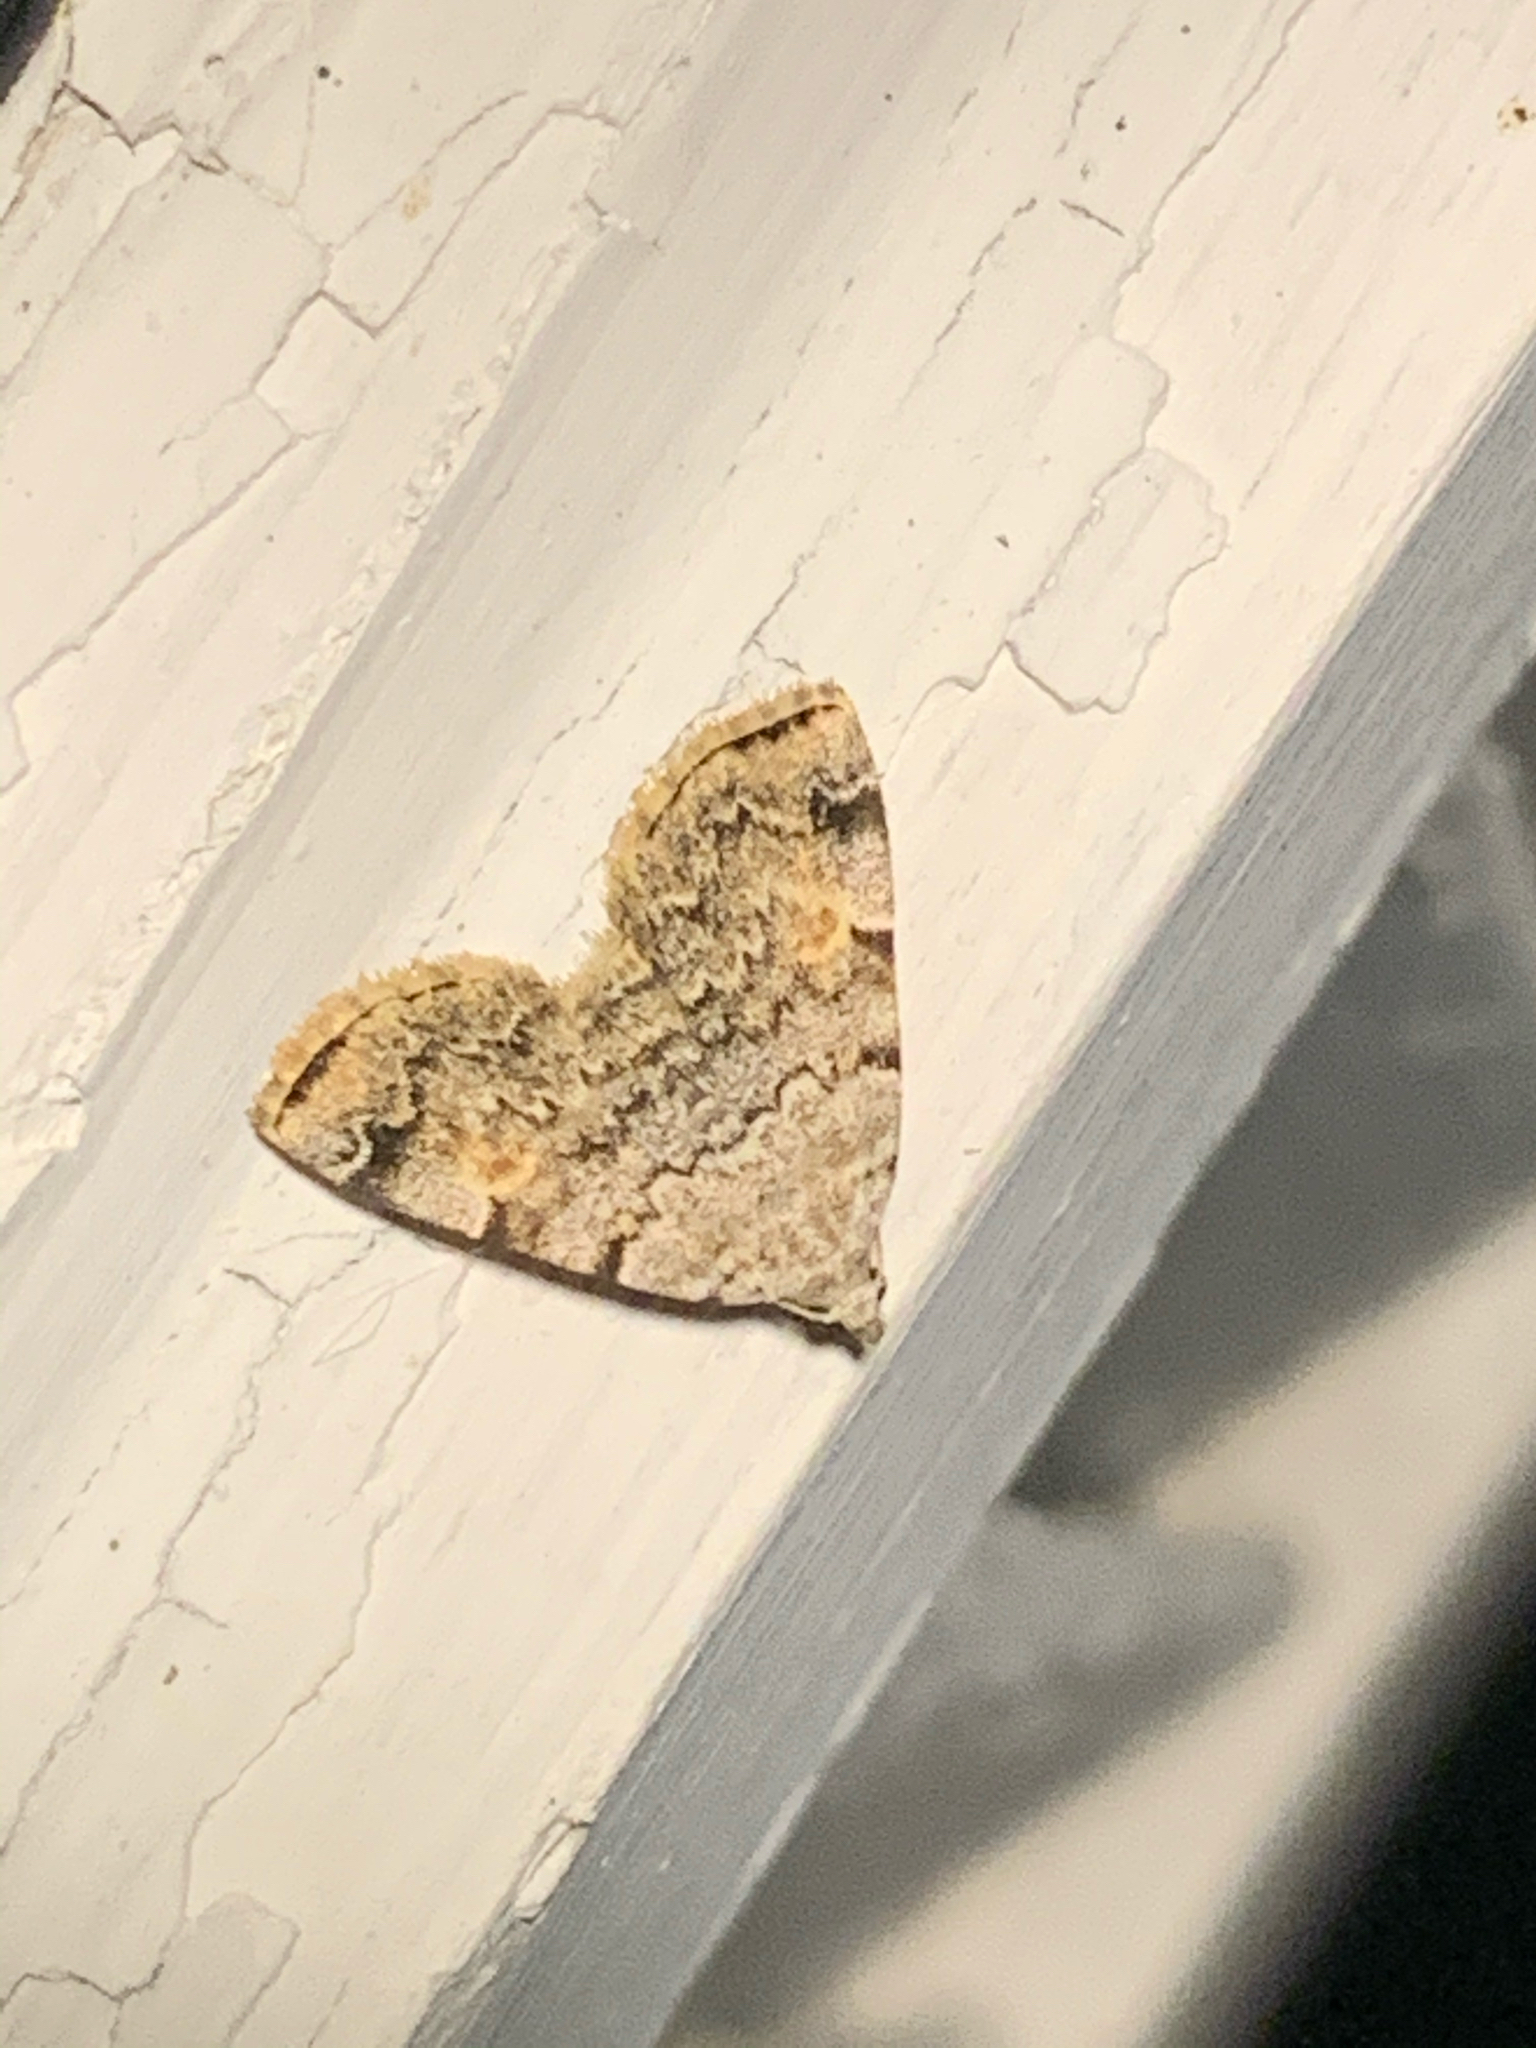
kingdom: Animalia
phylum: Arthropoda
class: Insecta
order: Lepidoptera
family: Erebidae
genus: Idia
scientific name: Idia americalis
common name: American idia moth
